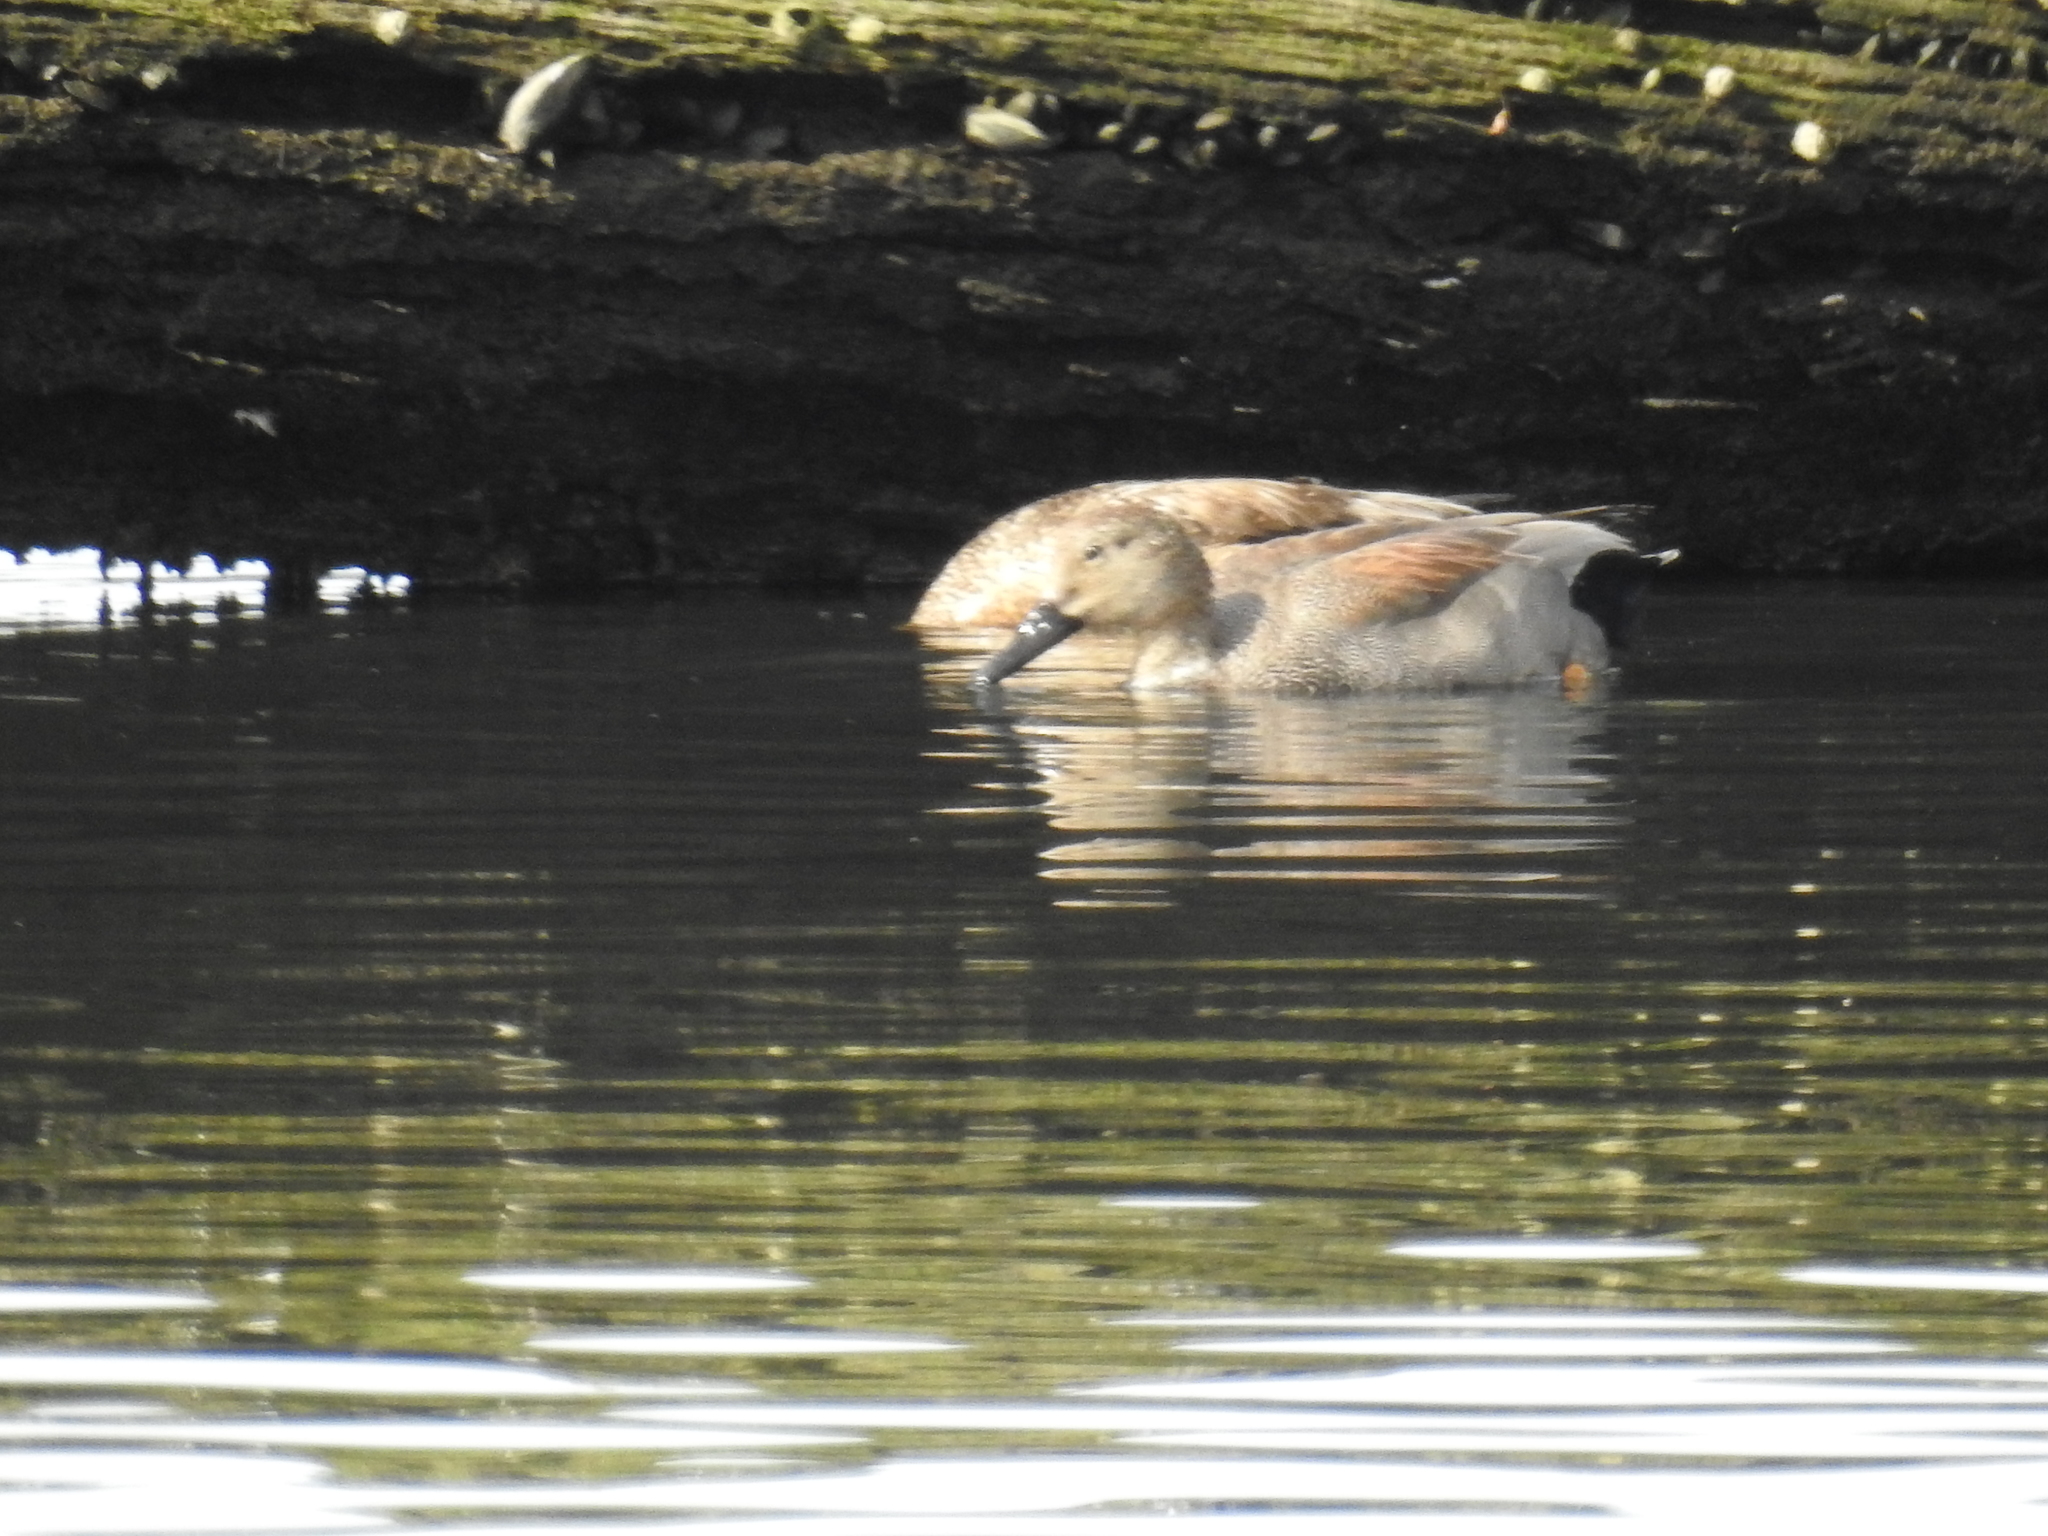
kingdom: Animalia
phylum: Chordata
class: Aves
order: Anseriformes
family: Anatidae
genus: Mareca
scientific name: Mareca strepera
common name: Gadwall
